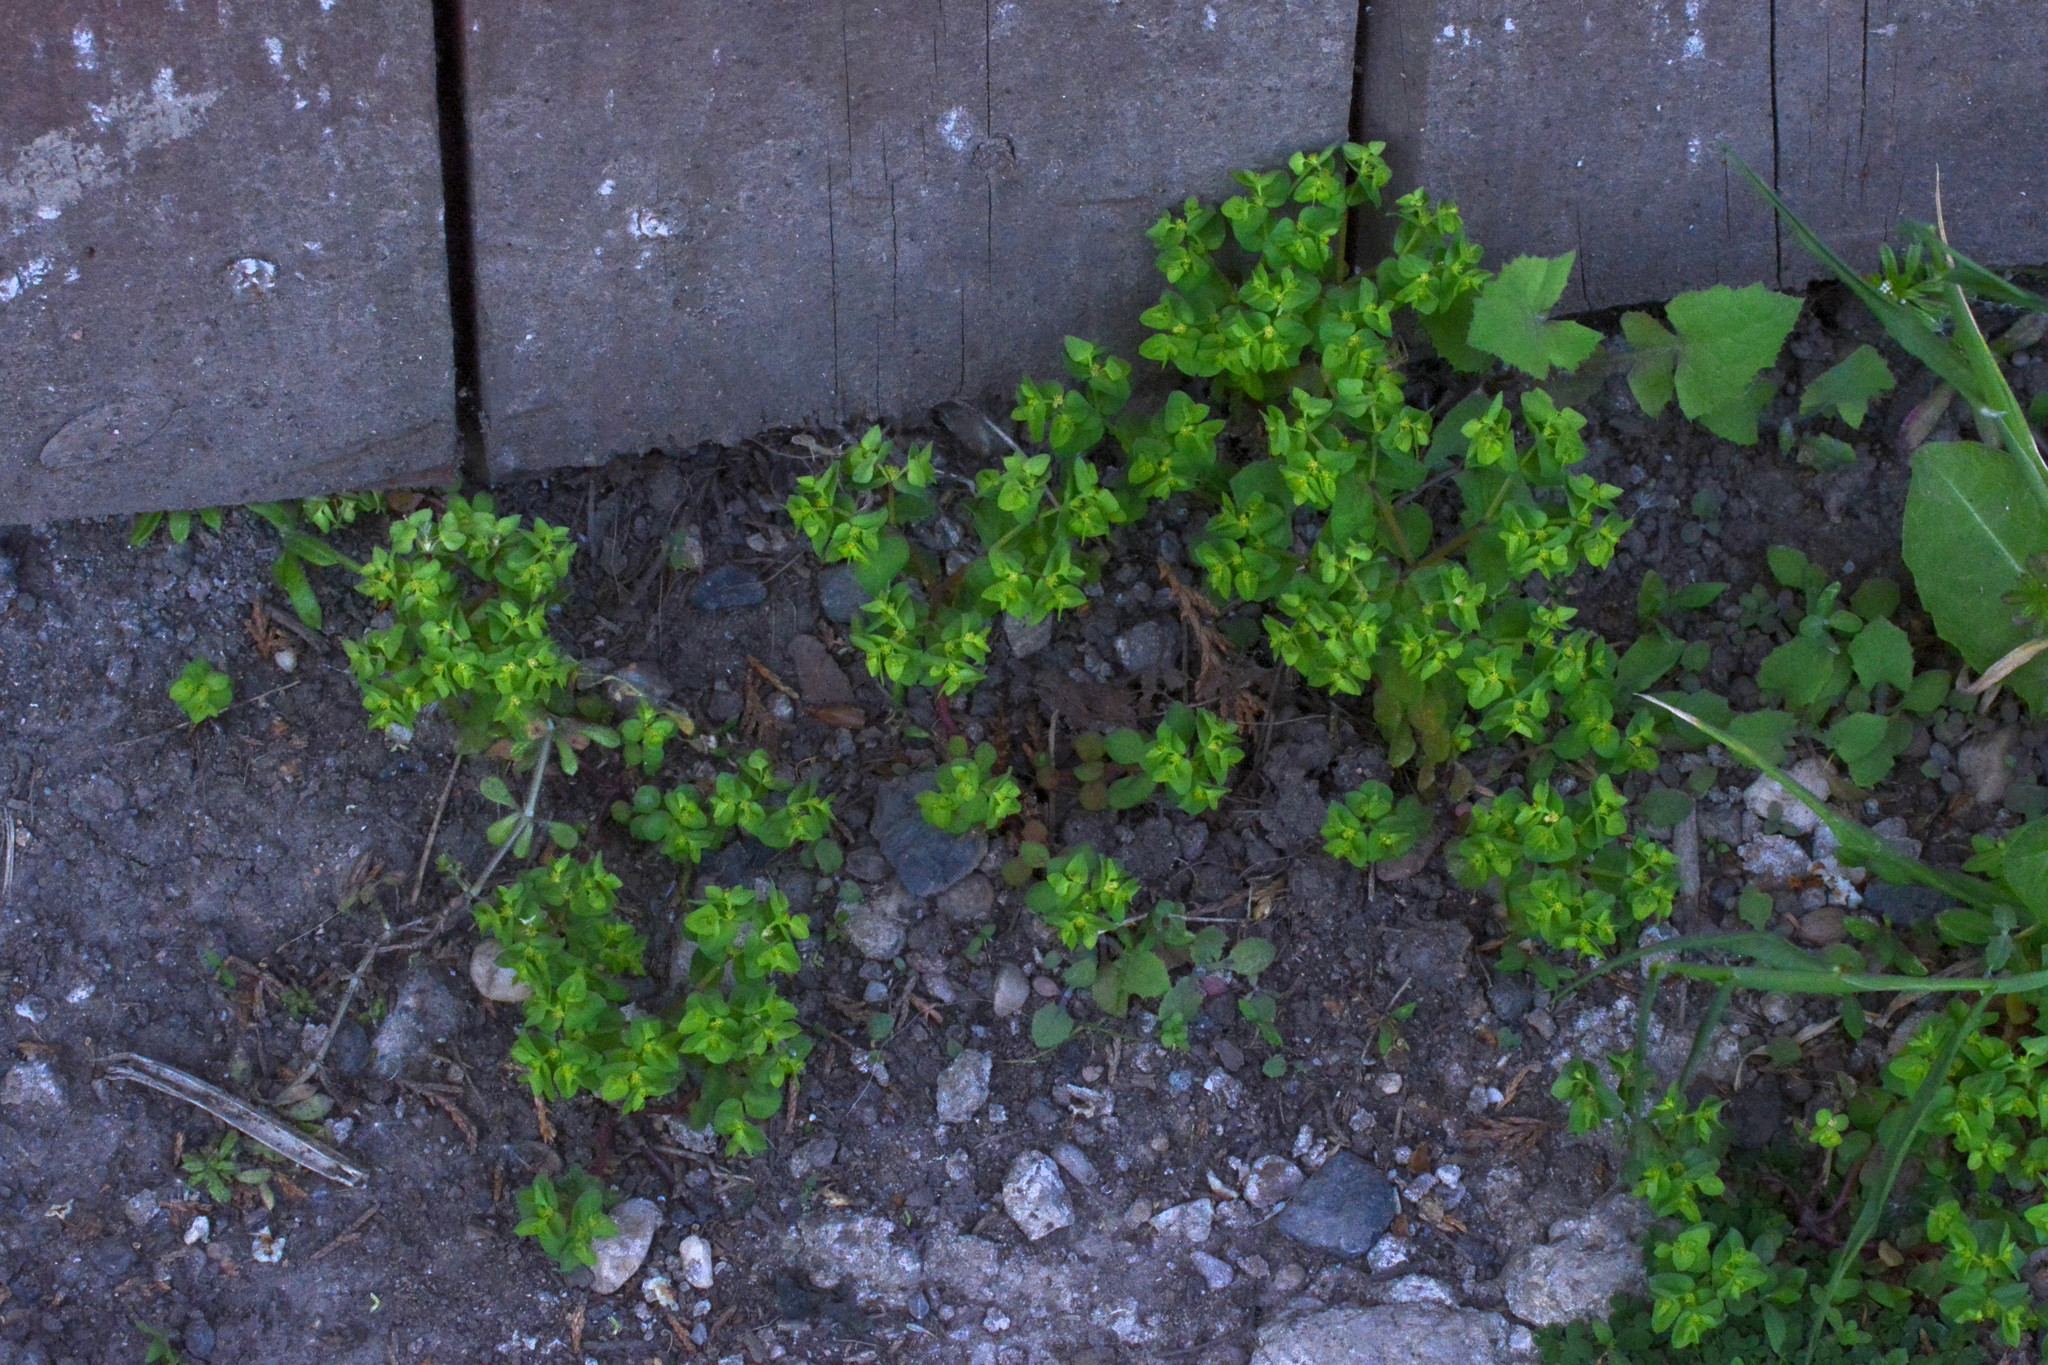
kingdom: Plantae
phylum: Tracheophyta
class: Magnoliopsida
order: Malpighiales
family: Euphorbiaceae
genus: Euphorbia
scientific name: Euphorbia peplus
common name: Petty spurge
